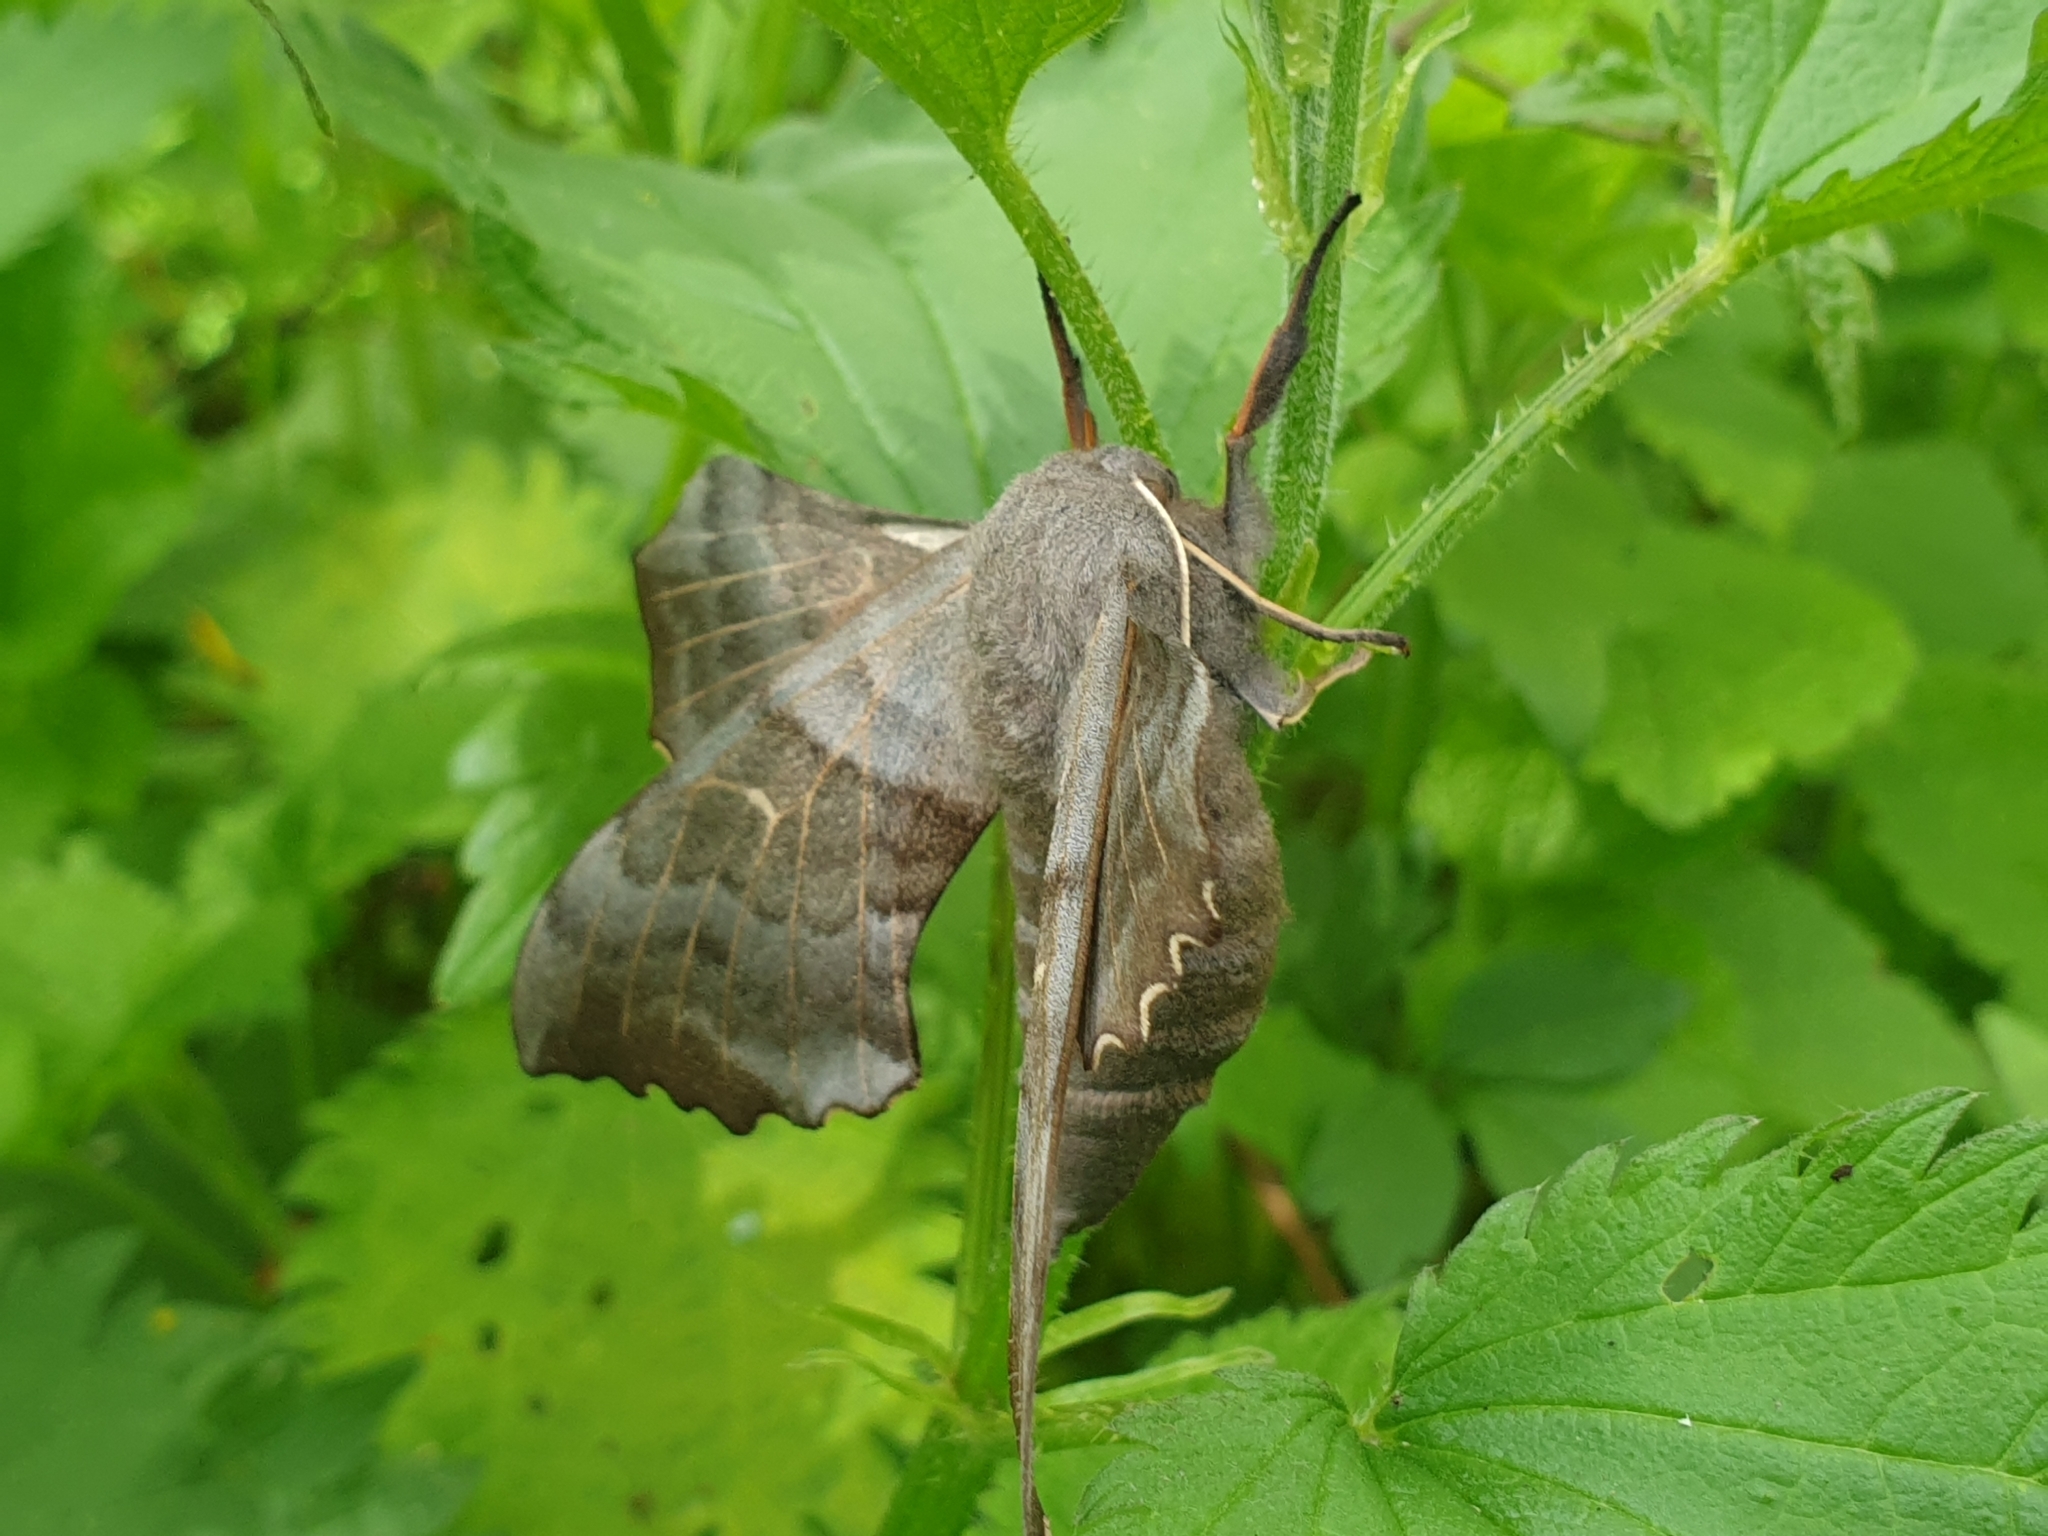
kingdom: Animalia
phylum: Arthropoda
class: Insecta
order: Lepidoptera
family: Sphingidae
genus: Laothoe
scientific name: Laothoe populi
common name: Poplar hawk-moth
